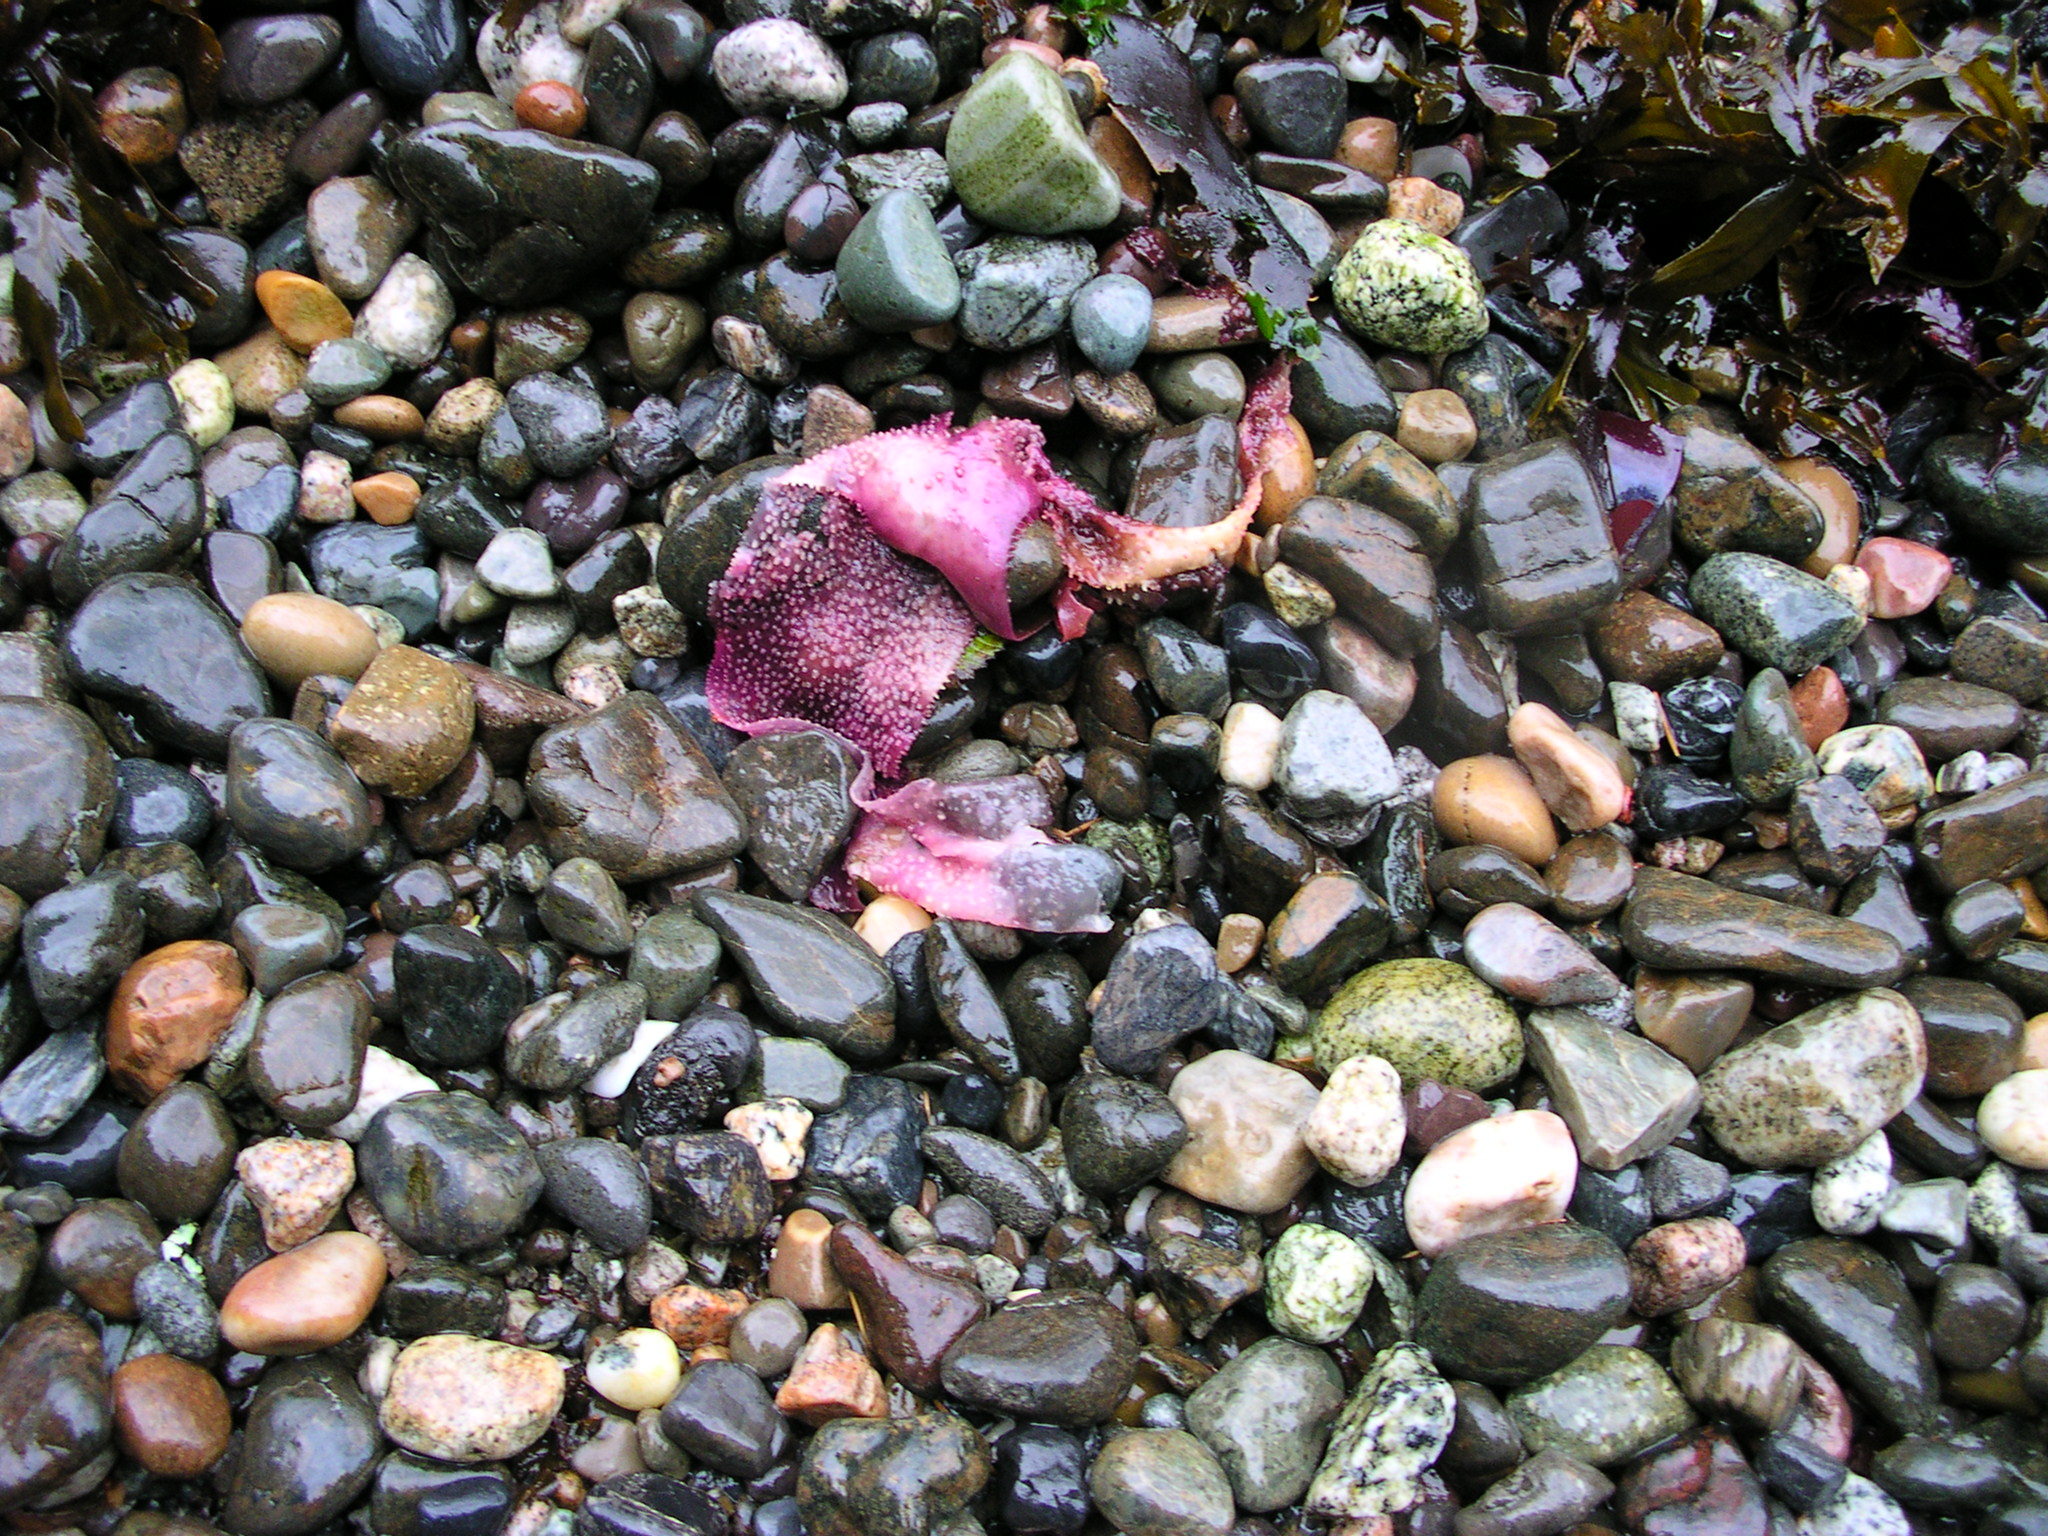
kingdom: Plantae
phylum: Rhodophyta
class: Florideophyceae
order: Gigartinales
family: Gigartinaceae
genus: Chondracanthus
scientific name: Chondracanthus exasperatus
